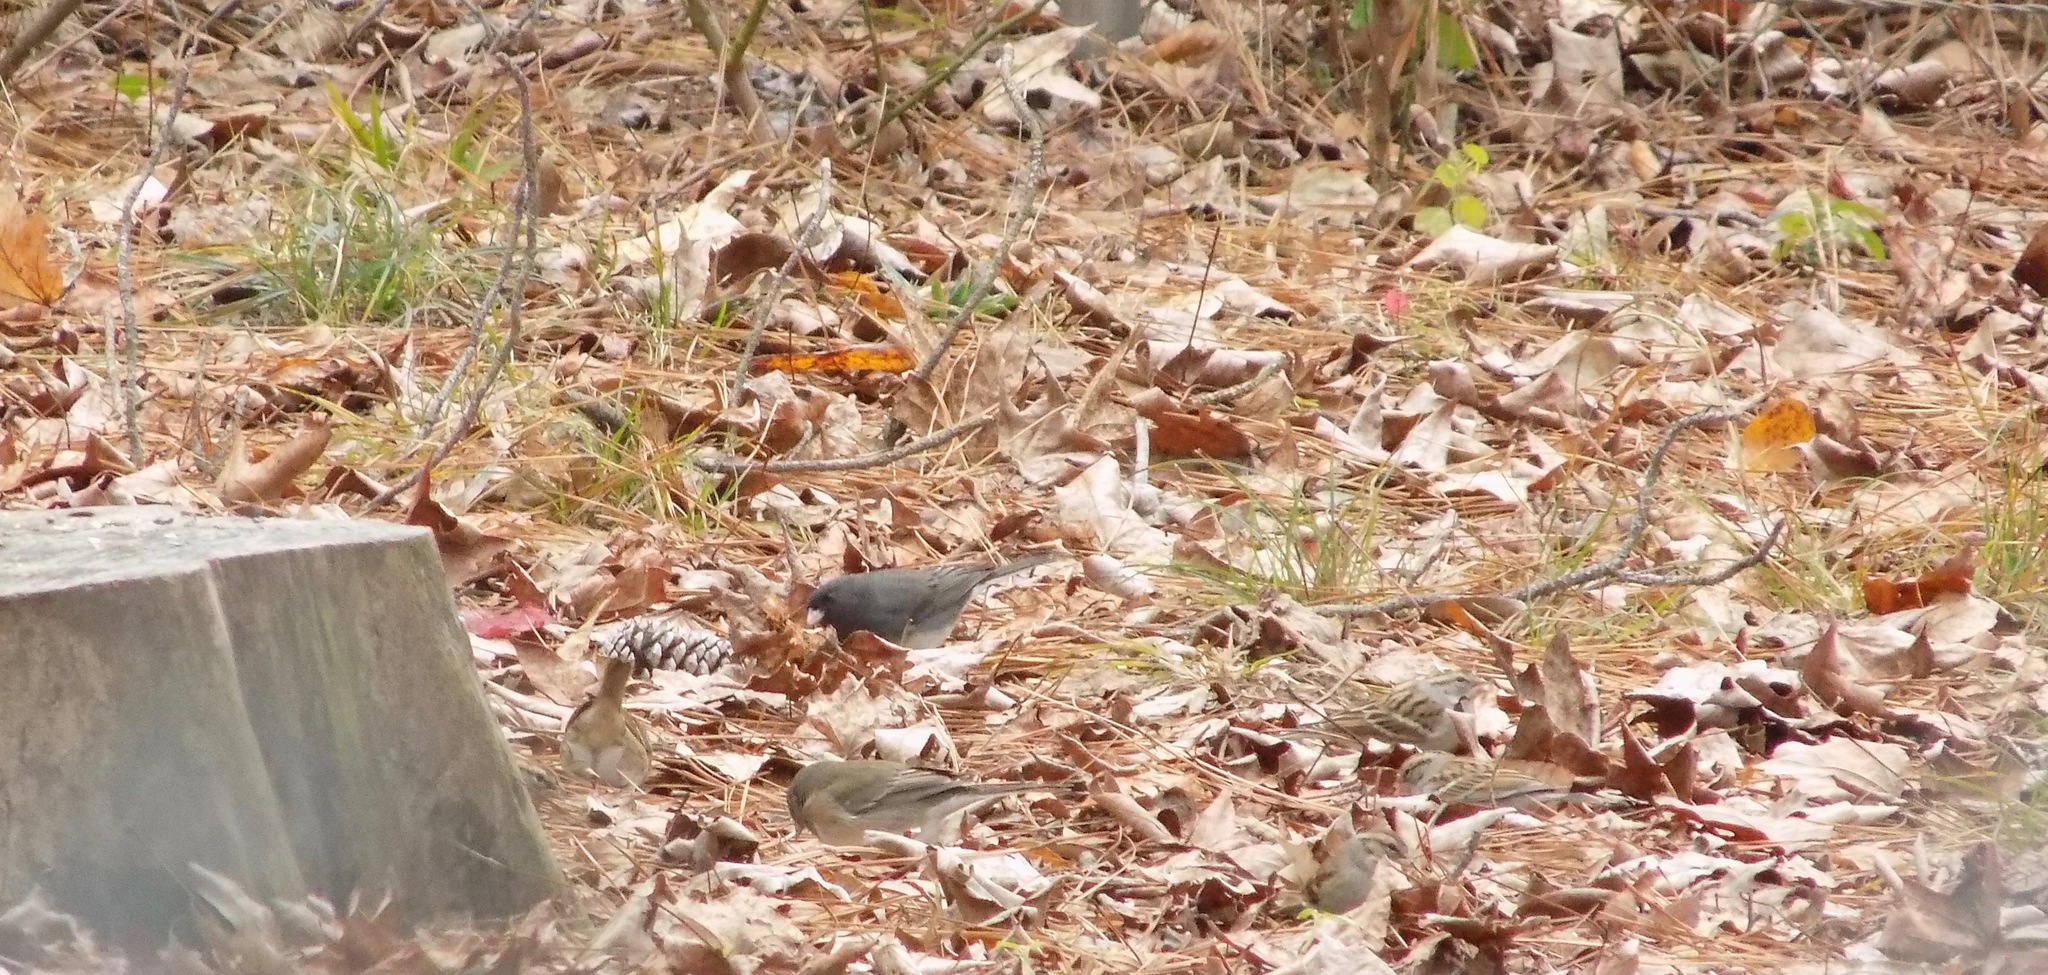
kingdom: Animalia
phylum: Chordata
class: Aves
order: Passeriformes
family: Passerellidae
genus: Junco
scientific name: Junco hyemalis
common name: Dark-eyed junco
